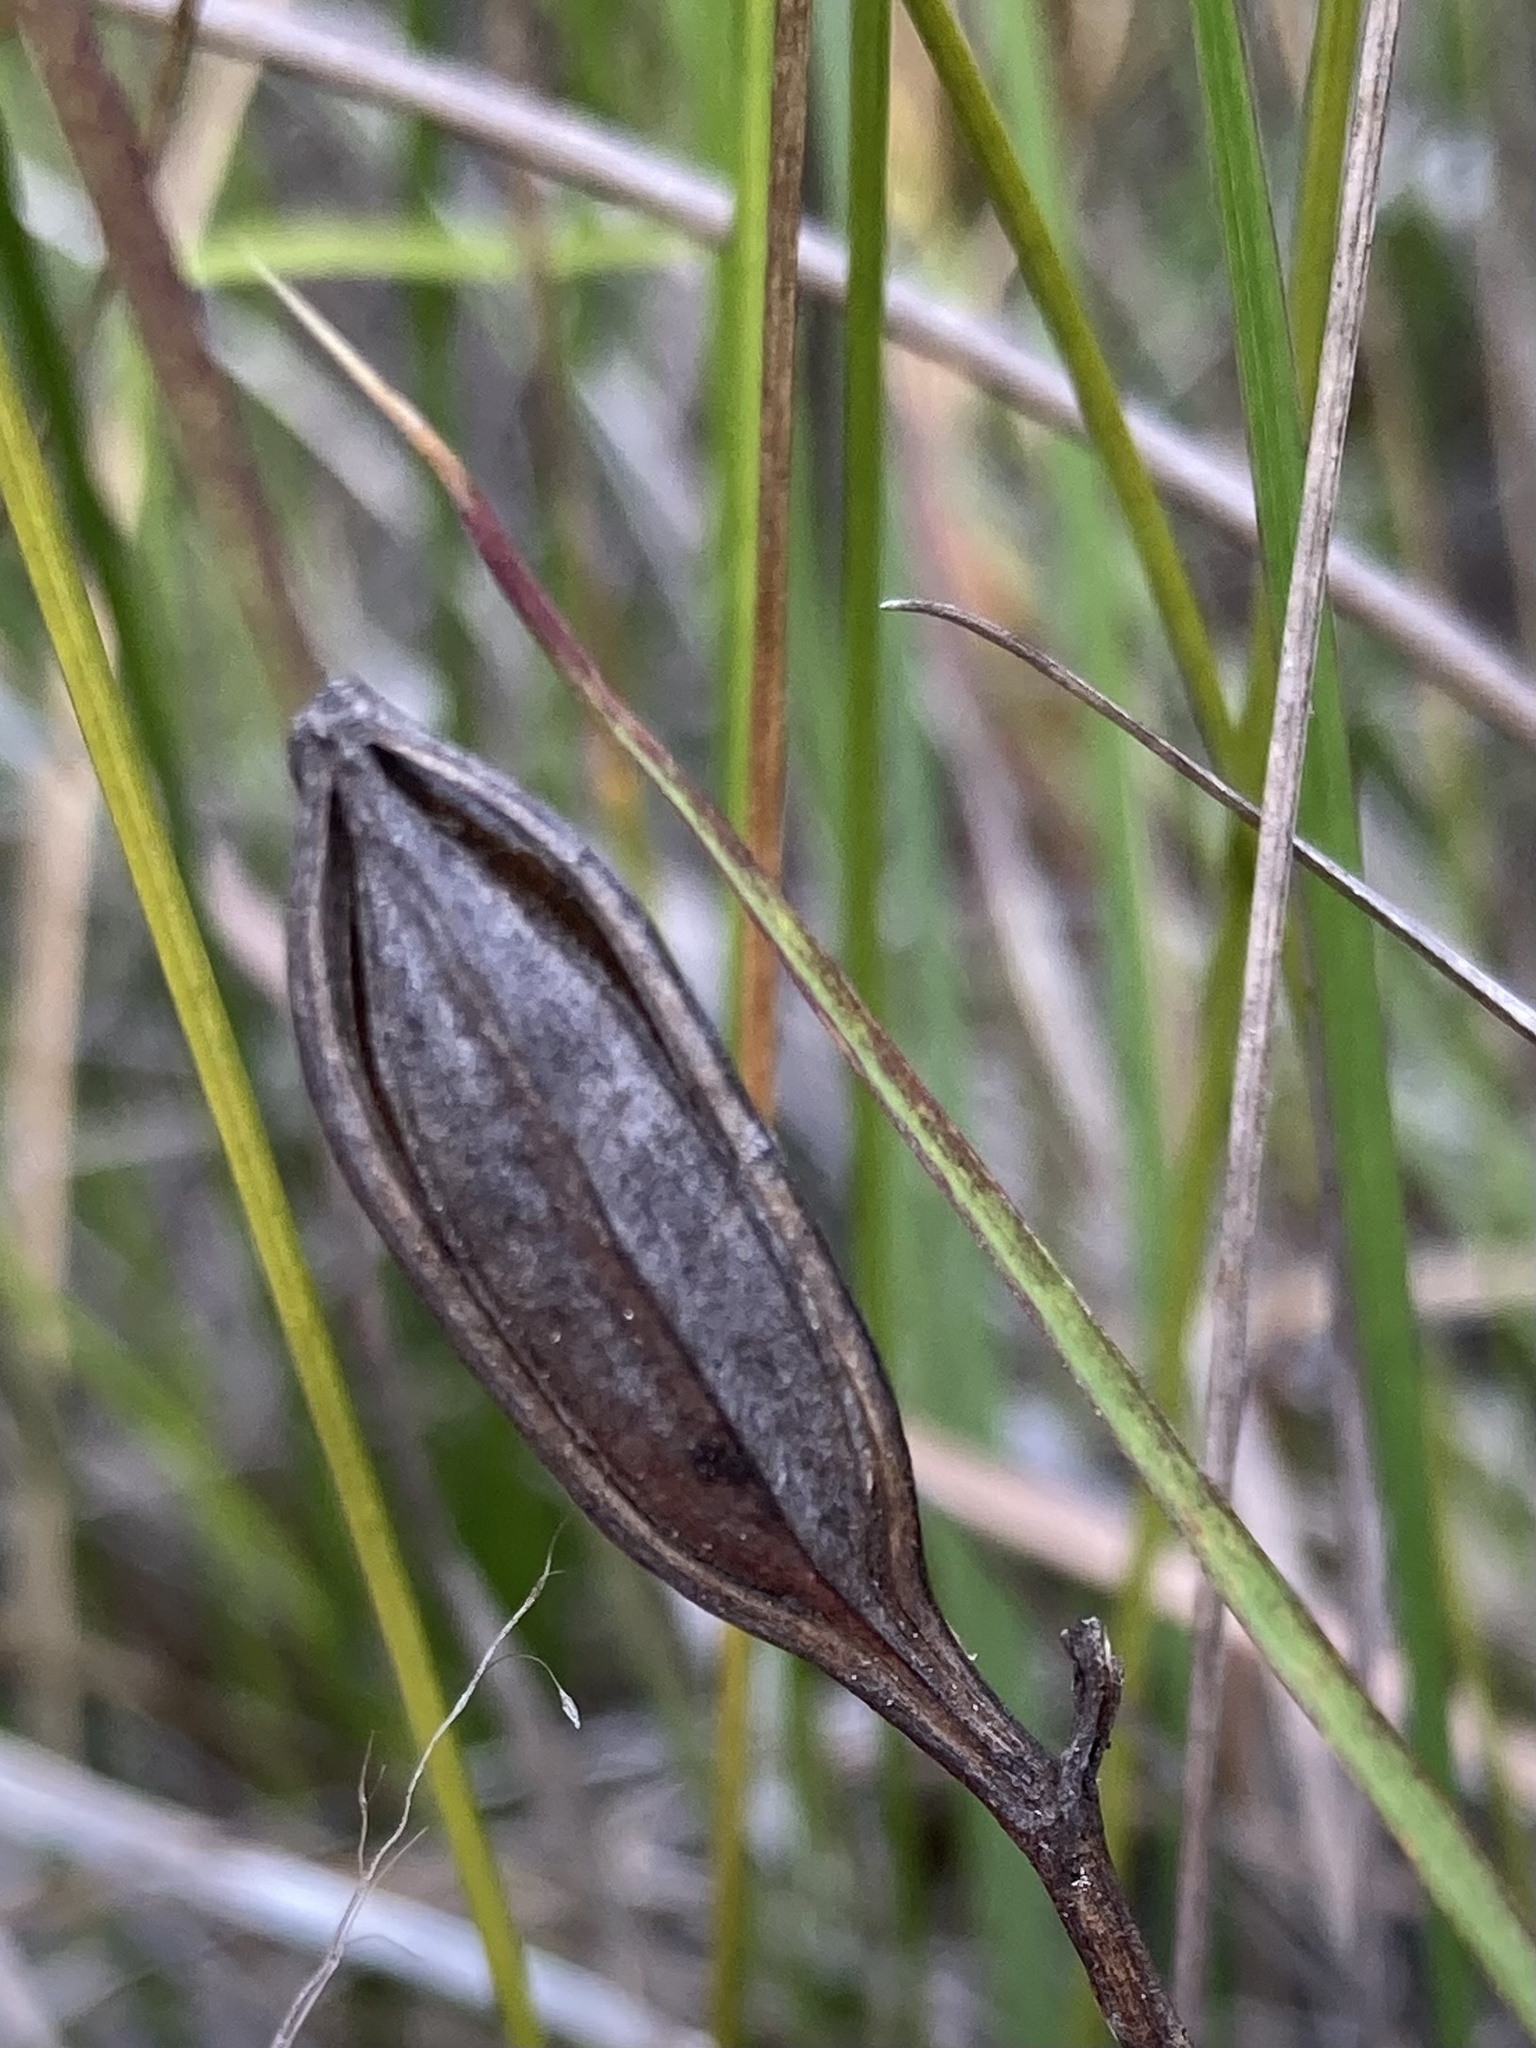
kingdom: Plantae
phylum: Tracheophyta
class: Liliopsida
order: Asparagales
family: Orchidaceae
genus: Pogonia
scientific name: Pogonia ophioglossoides
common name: Rose pogonia
